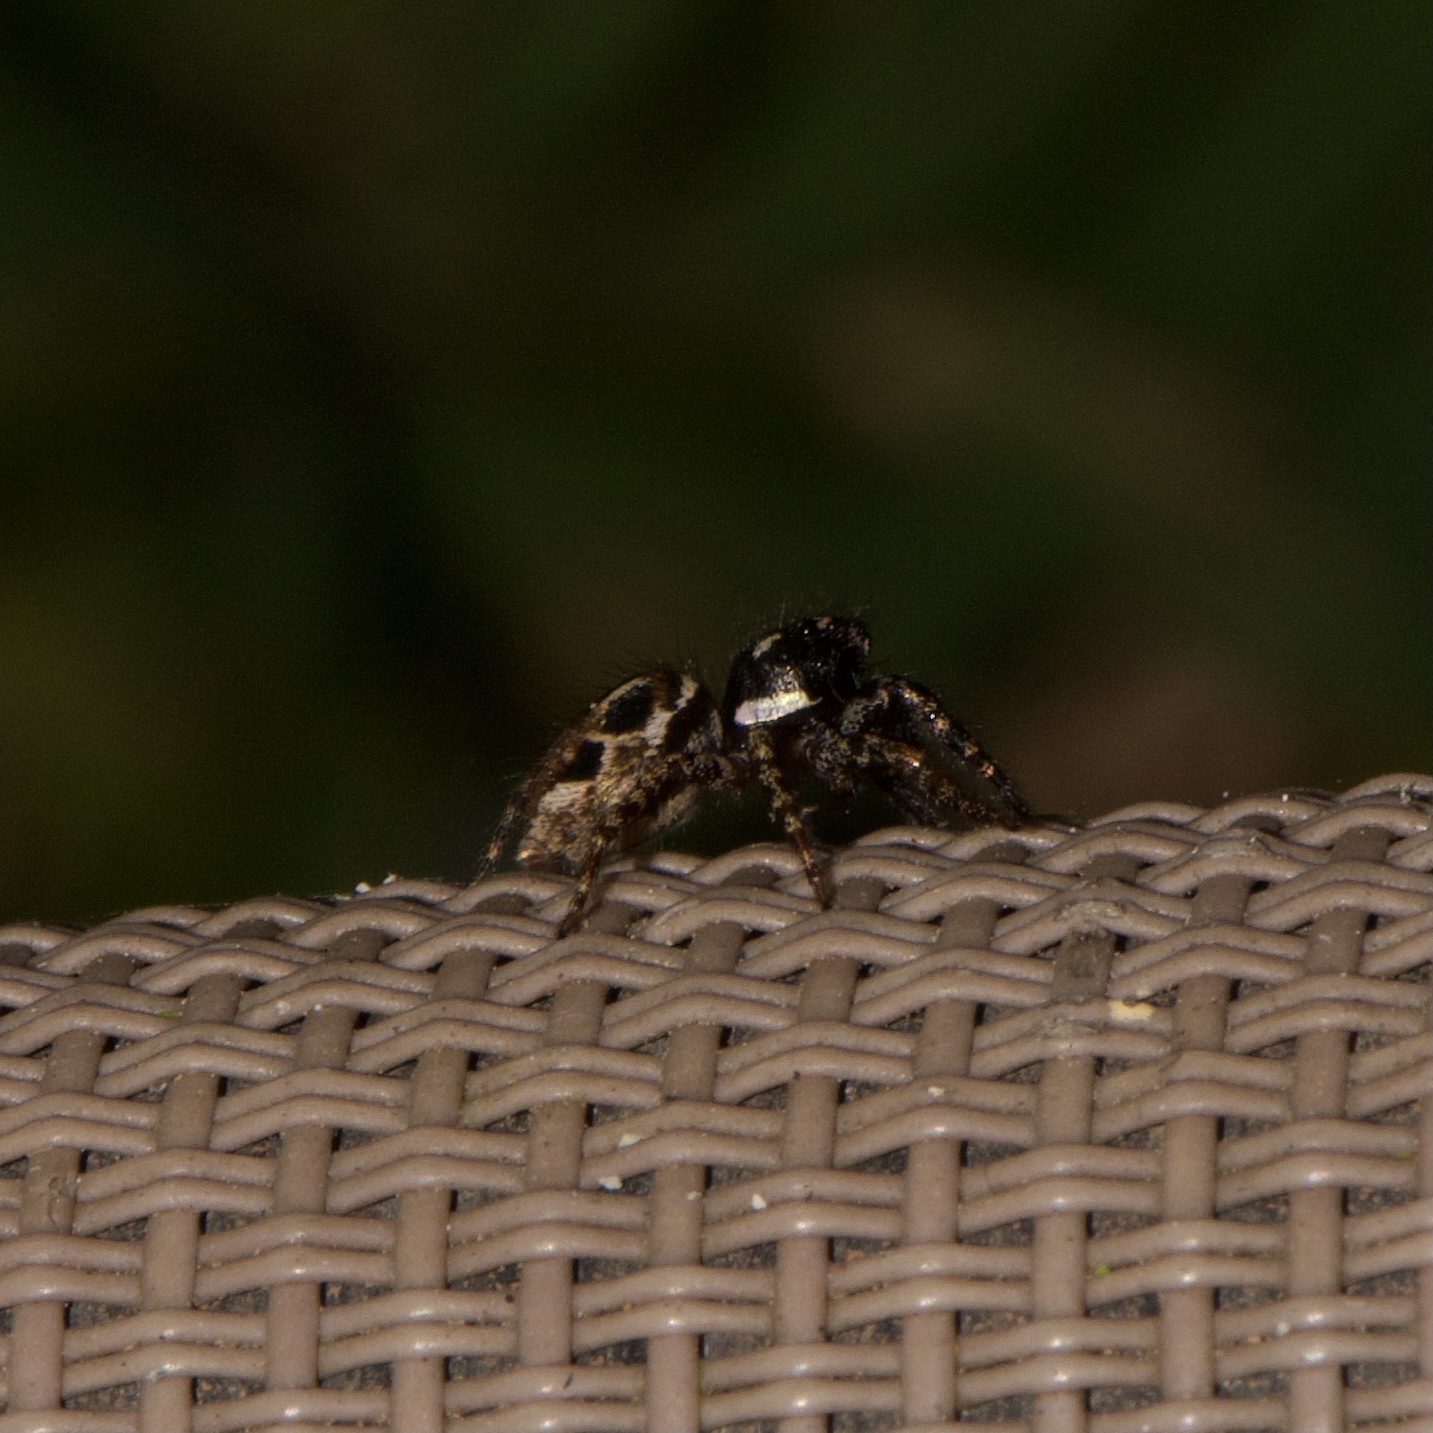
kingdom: Animalia
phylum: Arthropoda
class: Arachnida
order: Araneae
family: Salticidae
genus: Anasaitis
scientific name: Anasaitis canosa
